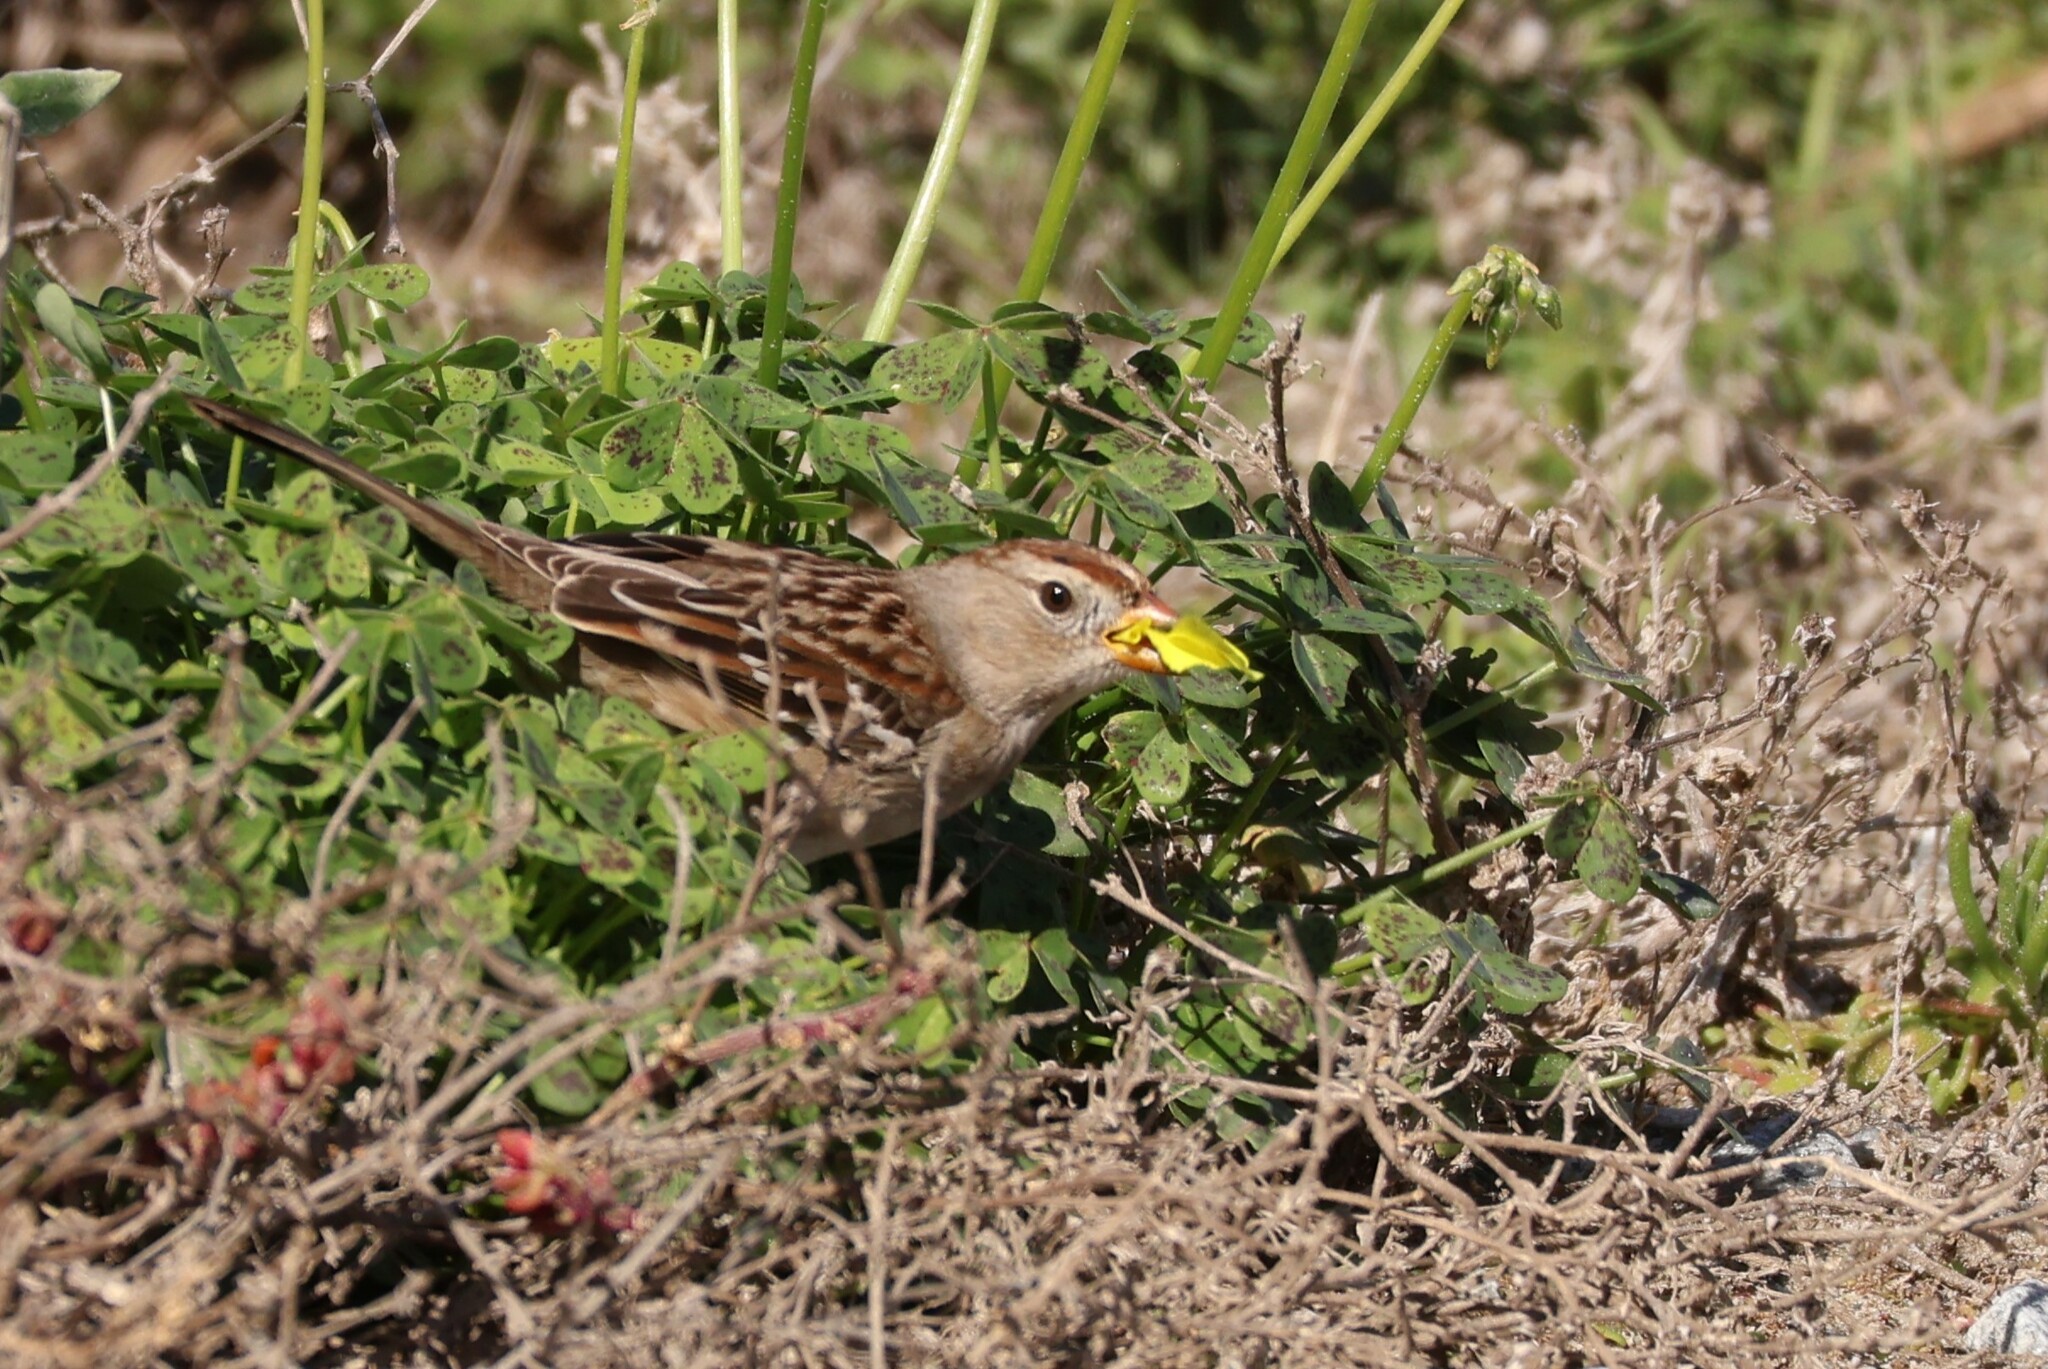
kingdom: Animalia
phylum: Chordata
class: Aves
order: Passeriformes
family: Passerellidae
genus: Zonotrichia
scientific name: Zonotrichia leucophrys
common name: White-crowned sparrow
